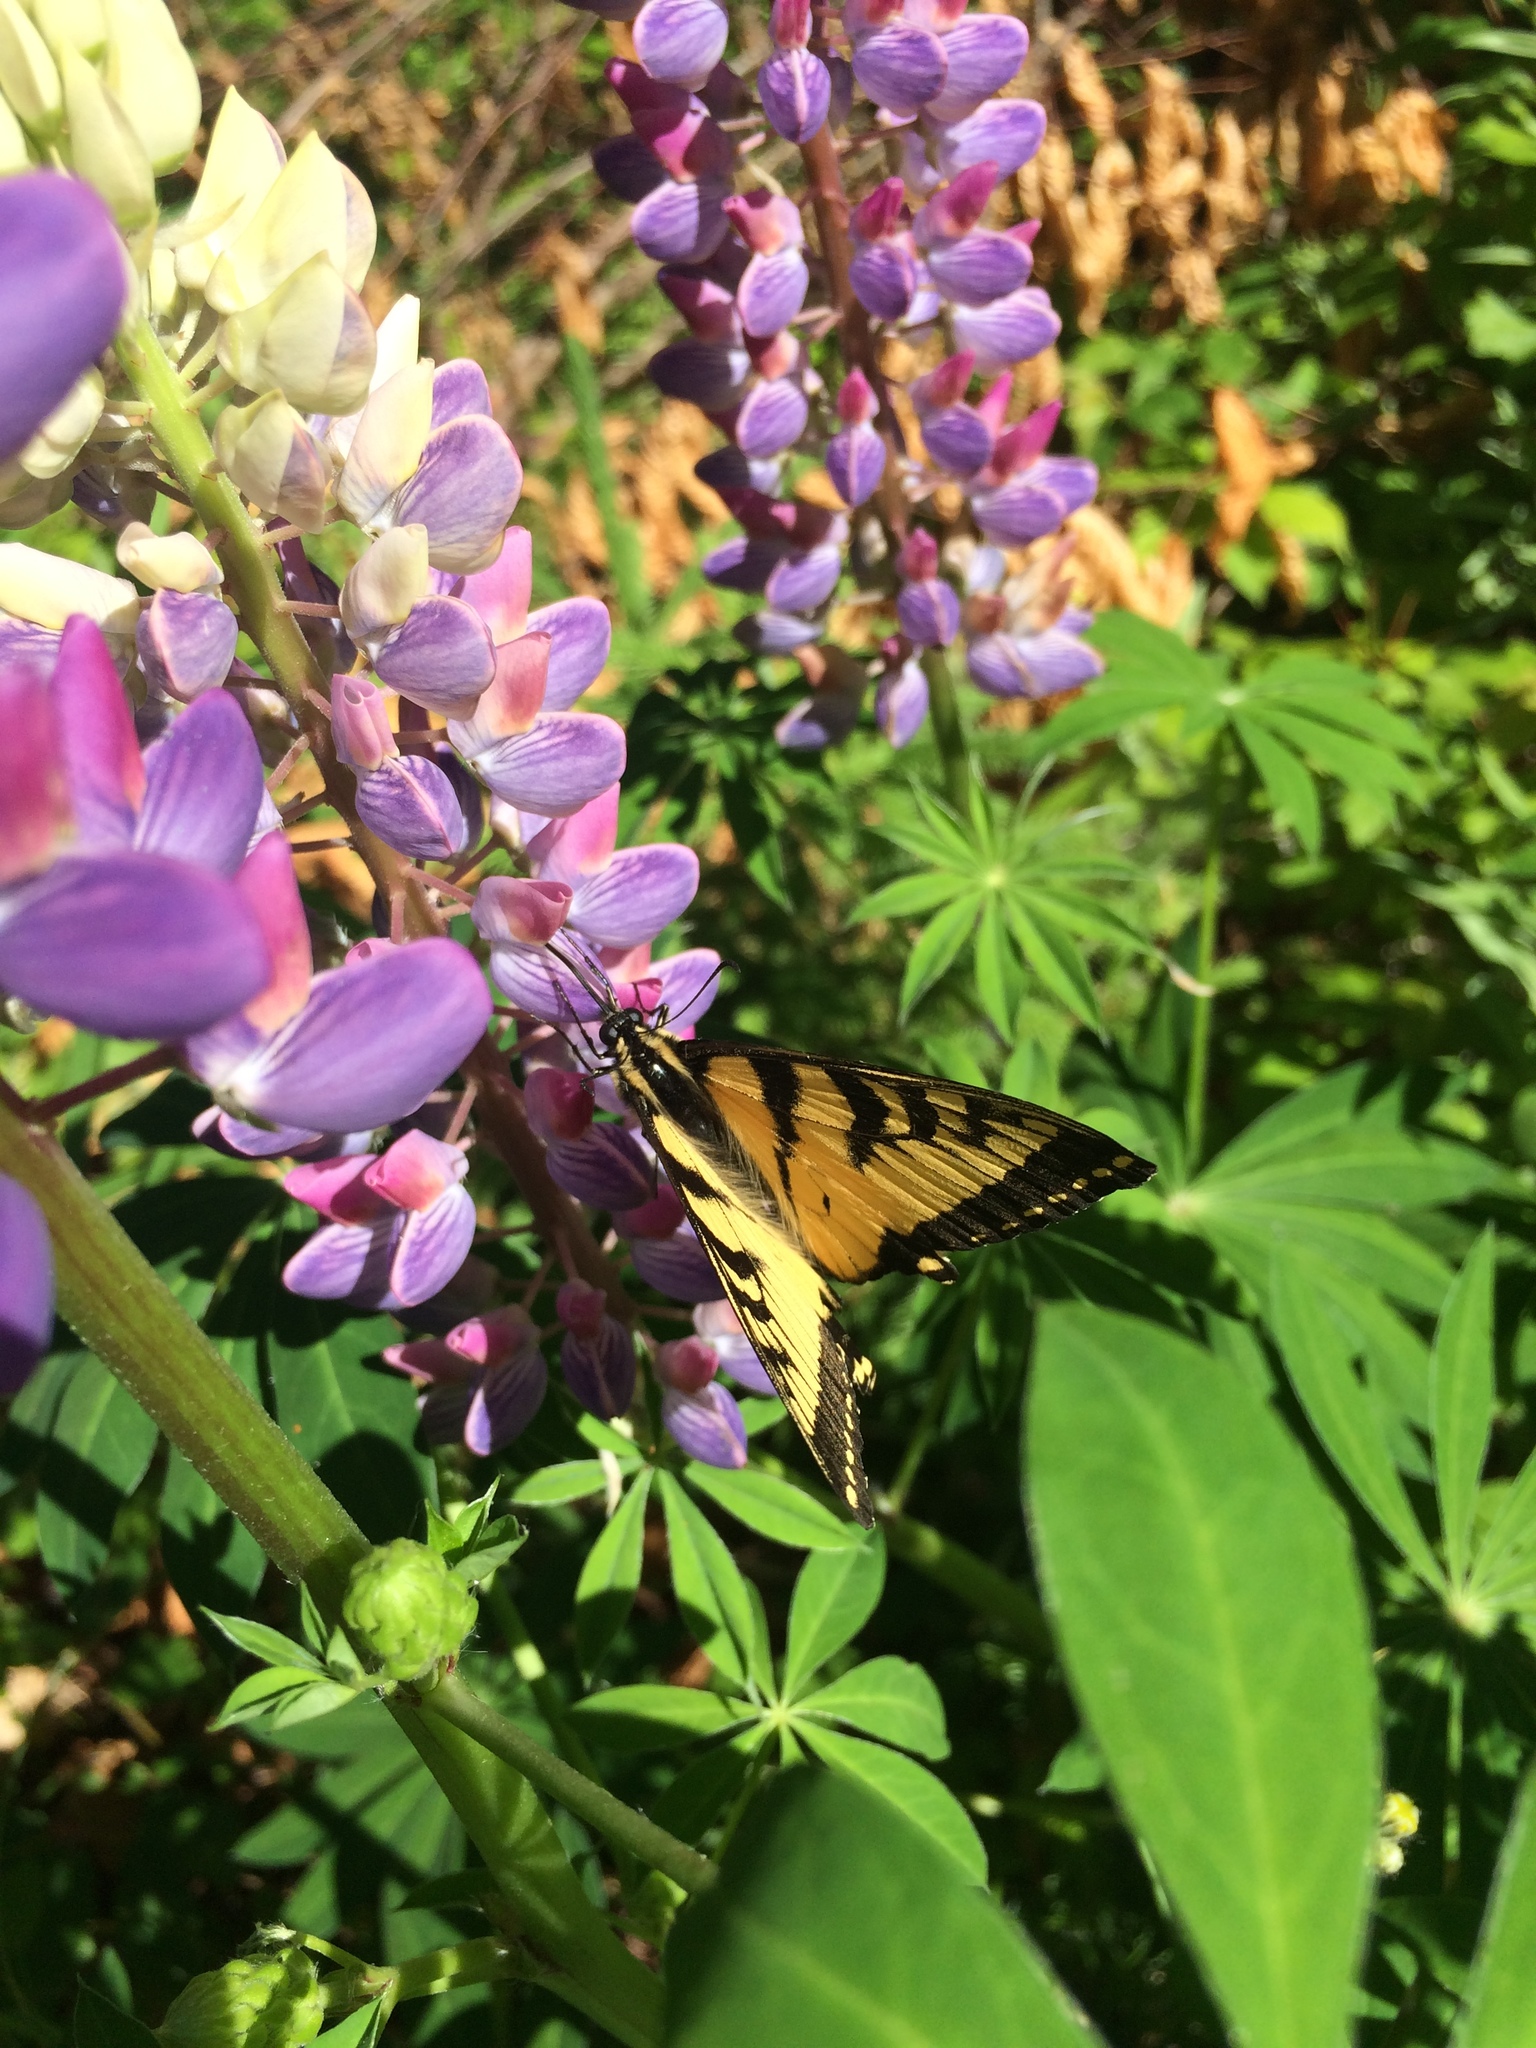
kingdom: Animalia
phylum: Arthropoda
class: Insecta
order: Lepidoptera
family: Papilionidae
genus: Papilio
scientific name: Papilio canadensis
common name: Canadian tiger swallowtail
